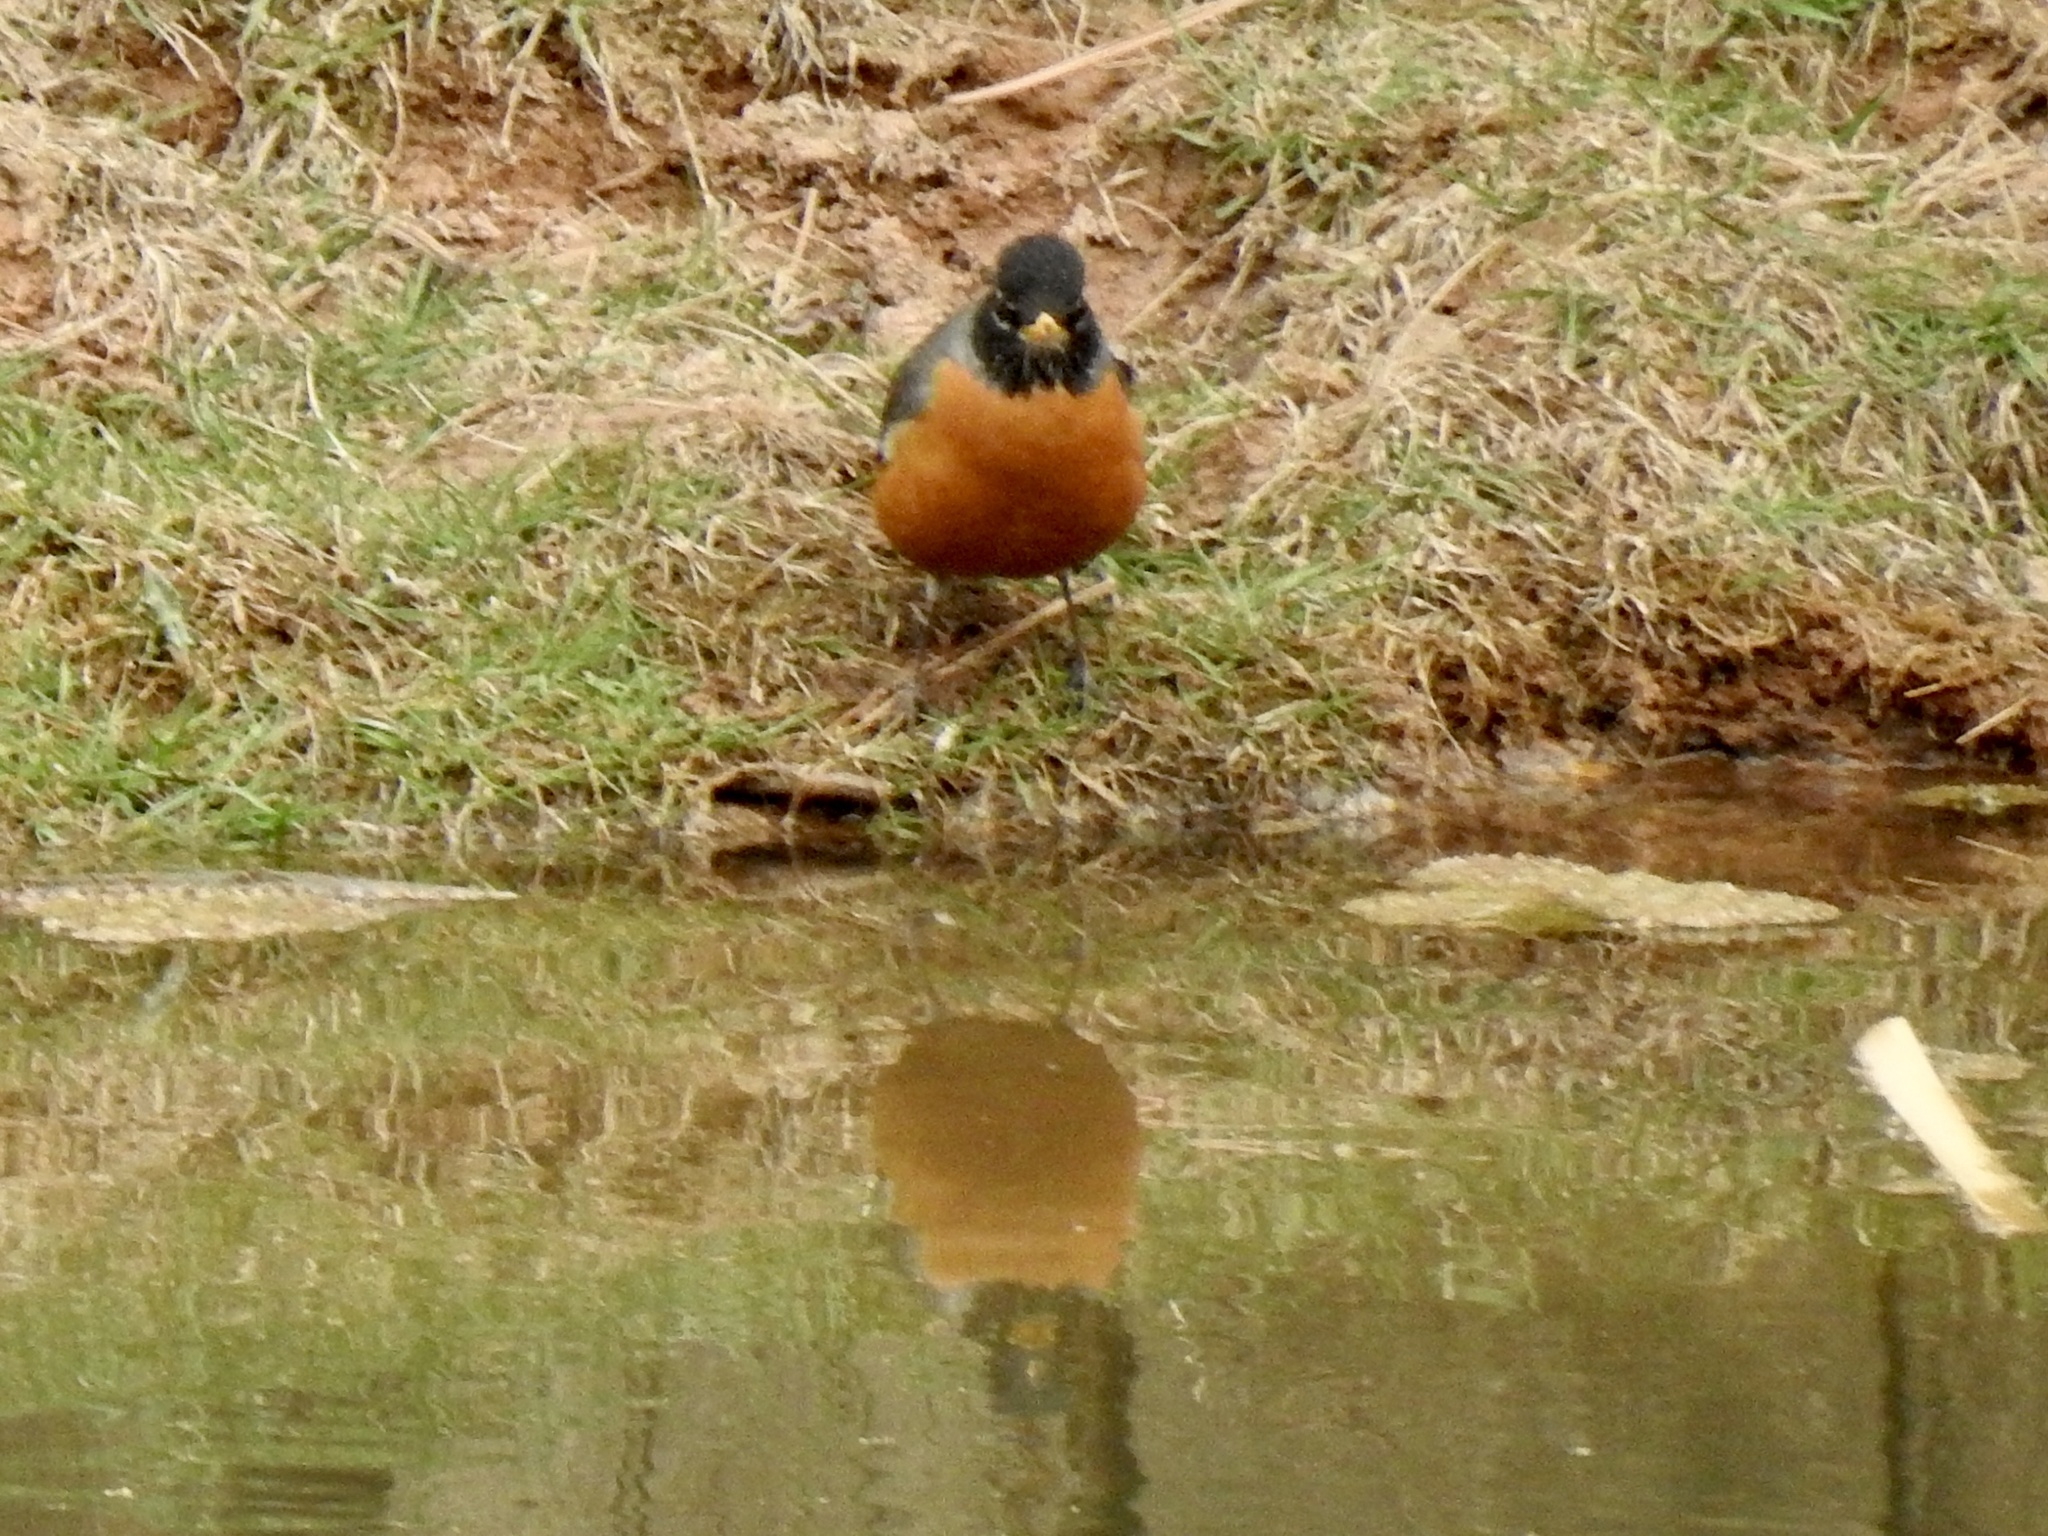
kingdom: Animalia
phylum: Chordata
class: Aves
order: Passeriformes
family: Turdidae
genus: Turdus
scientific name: Turdus migratorius
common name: American robin
